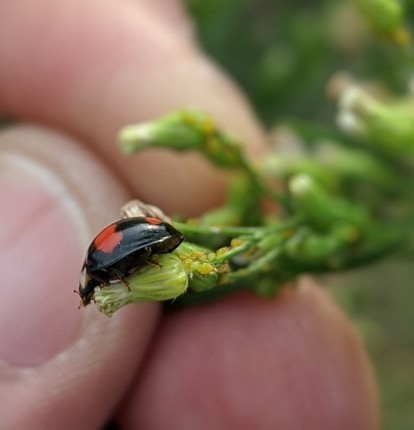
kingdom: Animalia
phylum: Arthropoda
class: Insecta
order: Coleoptera
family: Coccinellidae
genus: Harmonia
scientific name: Harmonia axyridis
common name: Harlequin ladybird
